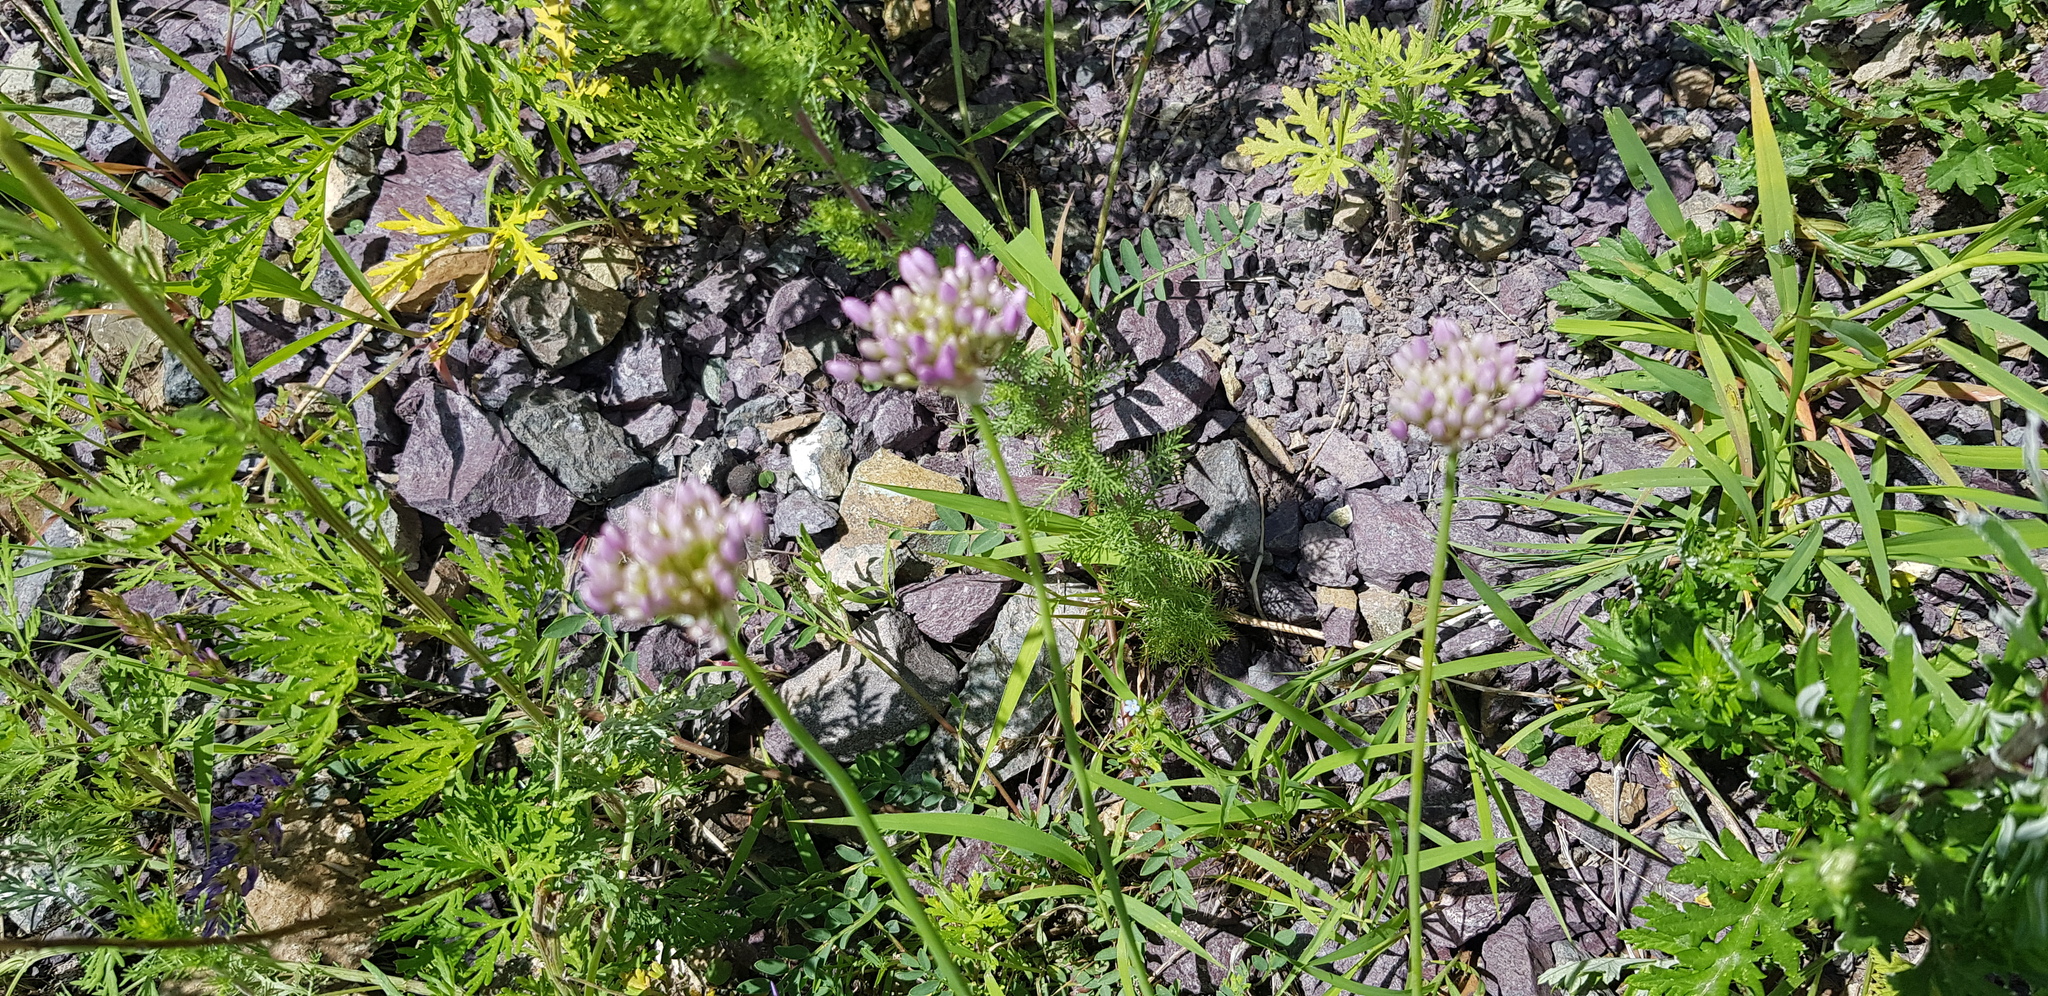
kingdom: Plantae
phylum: Tracheophyta
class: Liliopsida
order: Asparagales
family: Amaryllidaceae
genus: Allium
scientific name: Allium anisopodium
